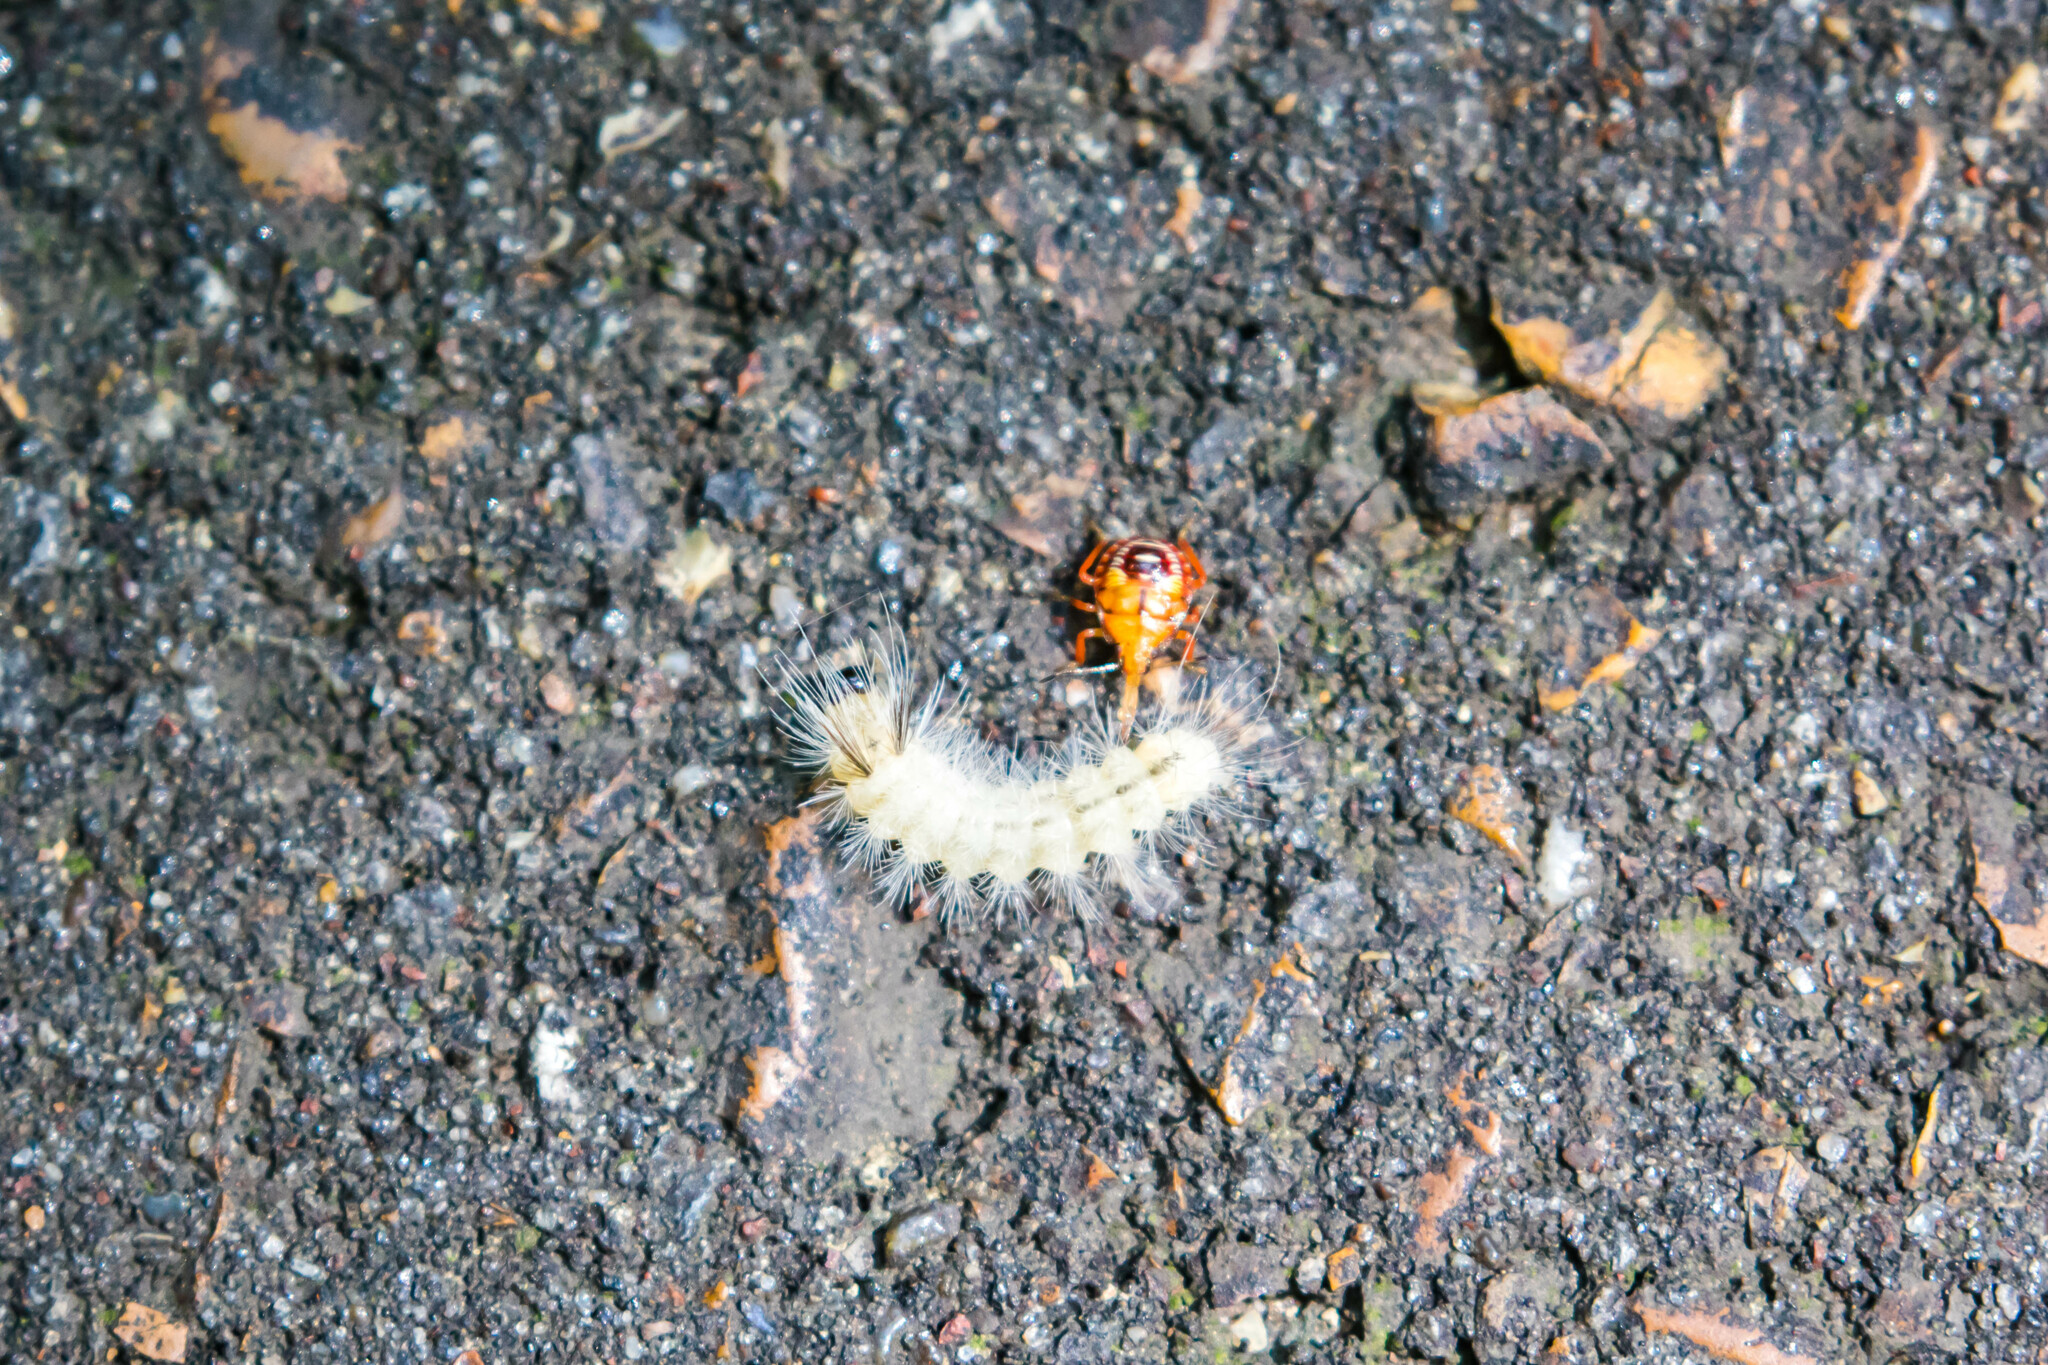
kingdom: Animalia
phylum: Arthropoda
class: Insecta
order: Lepidoptera
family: Erebidae
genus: Halysidota
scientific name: Halysidota tessellaris
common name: Banded tussock moth
